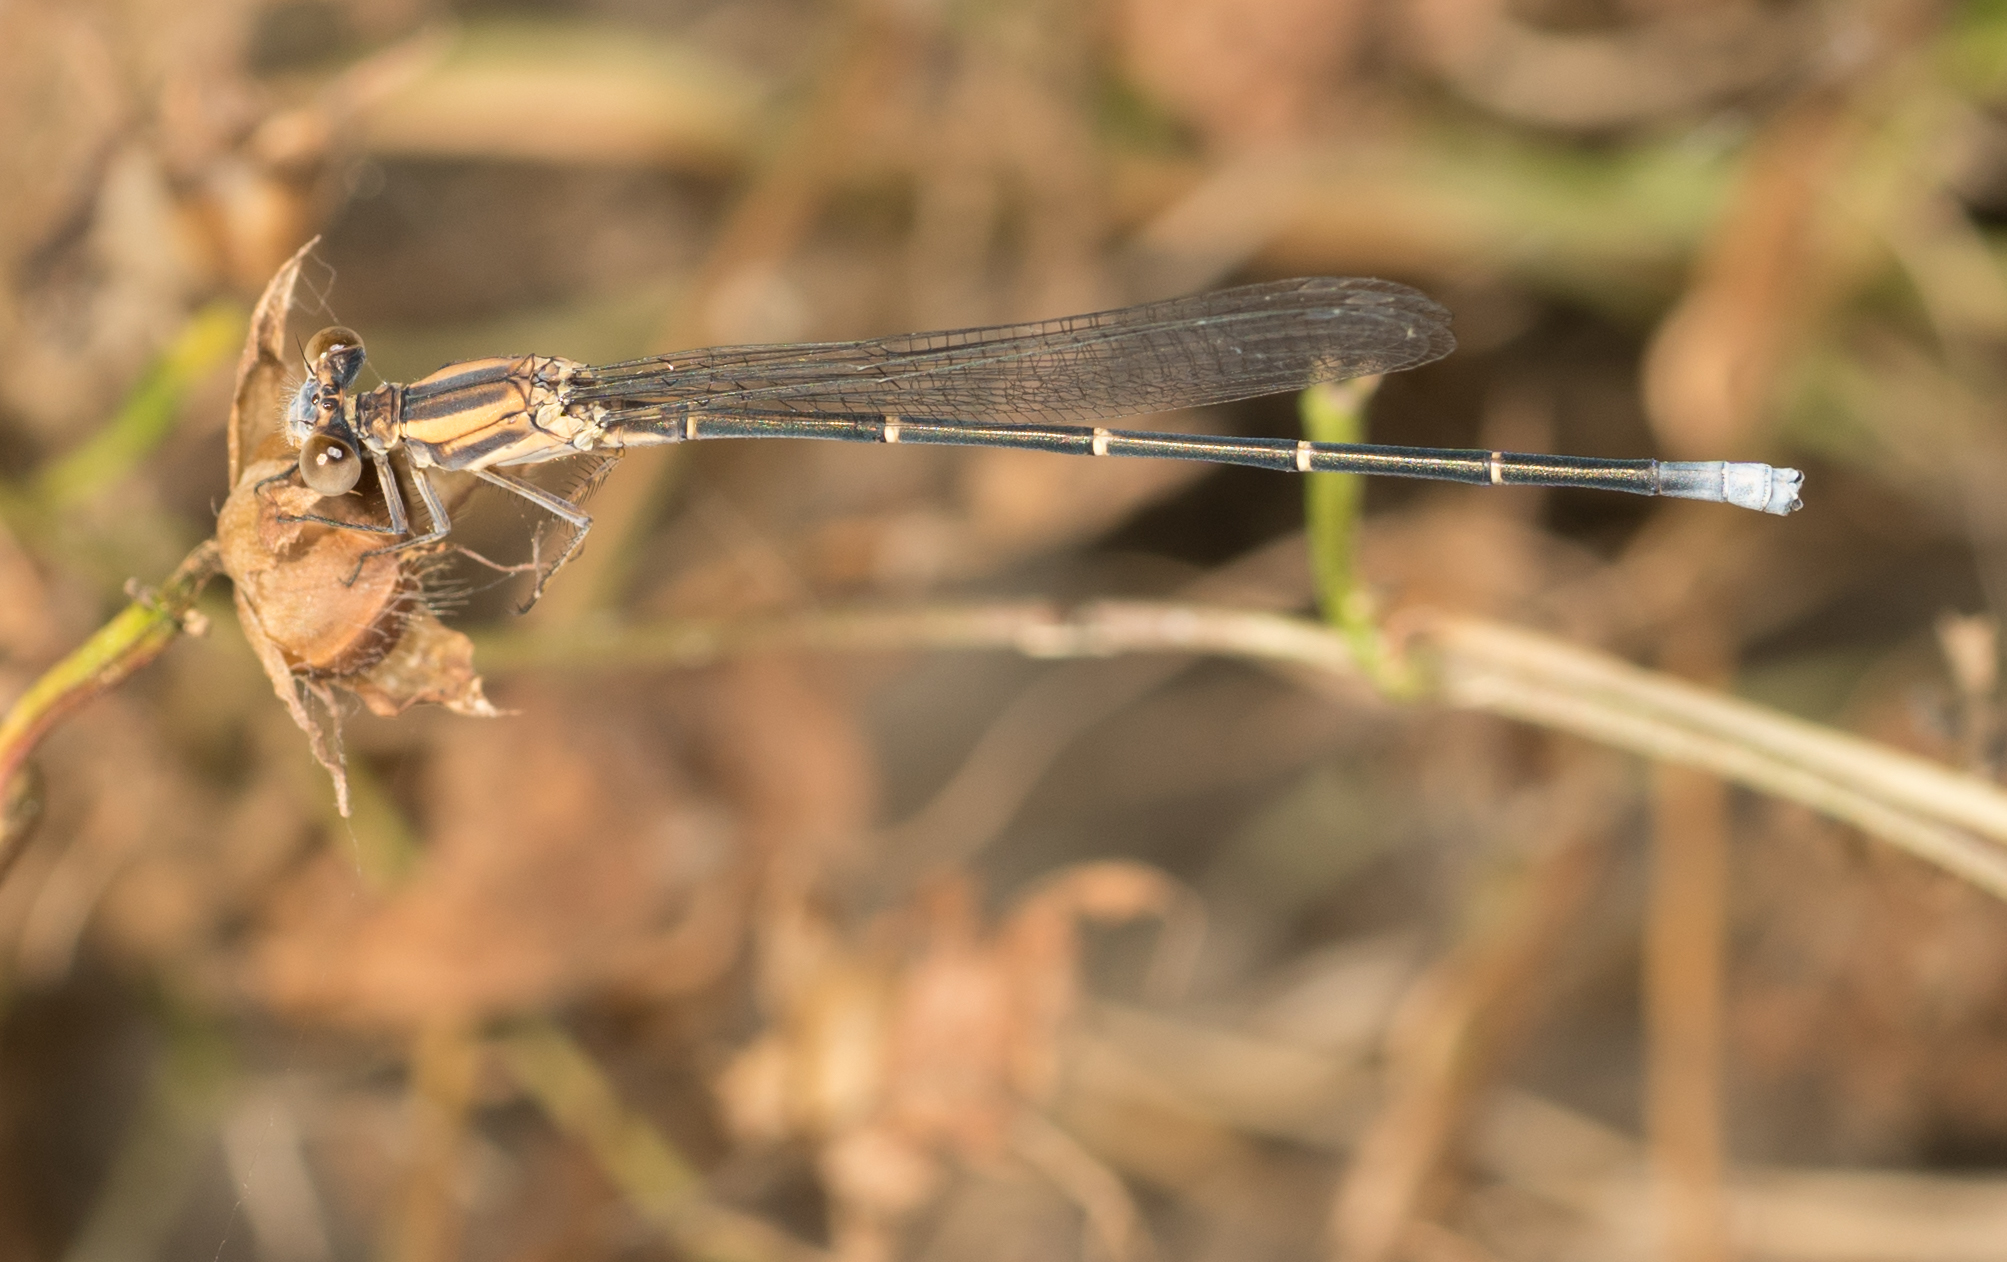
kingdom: Animalia
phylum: Arthropoda
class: Insecta
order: Odonata
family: Coenagrionidae
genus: Argia
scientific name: Argia moesta
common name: Powdered dancer
